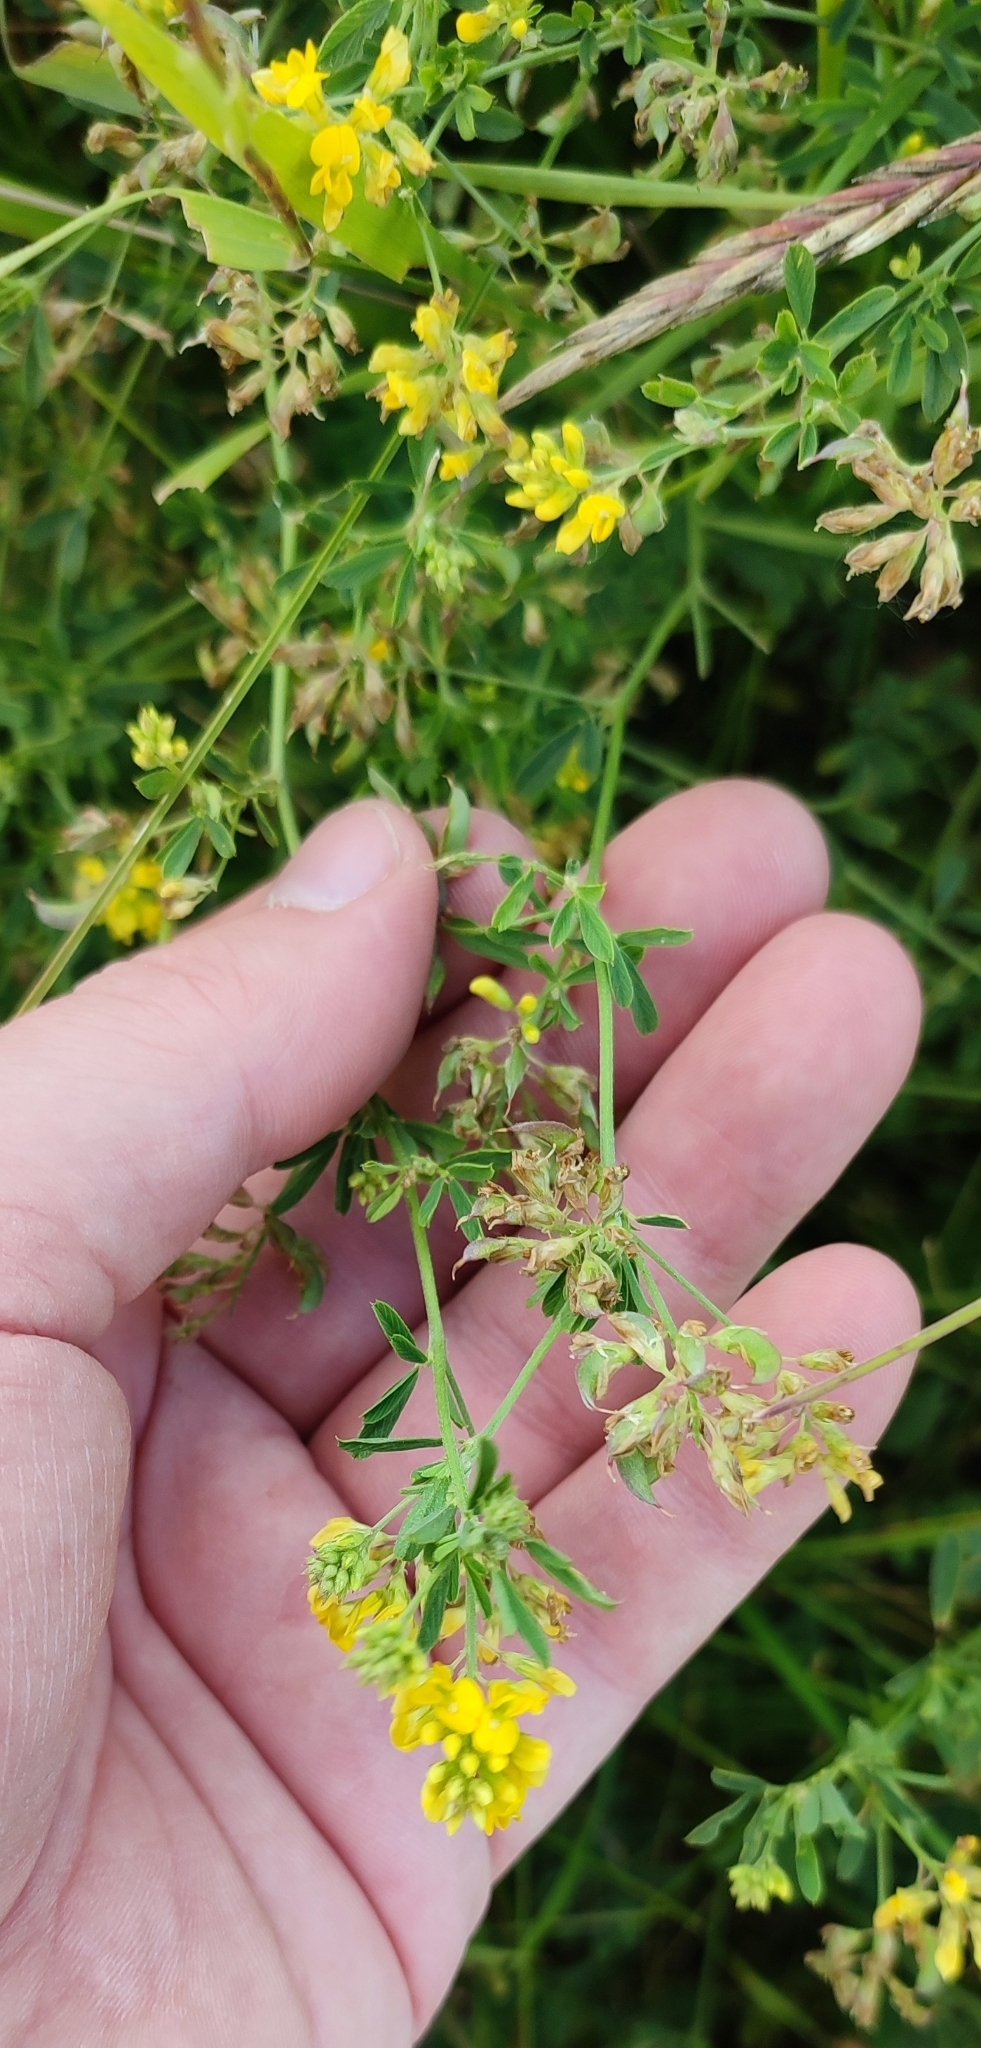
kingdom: Plantae
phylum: Tracheophyta
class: Magnoliopsida
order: Fabales
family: Fabaceae
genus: Medicago
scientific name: Medicago falcata
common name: Sickle medick
